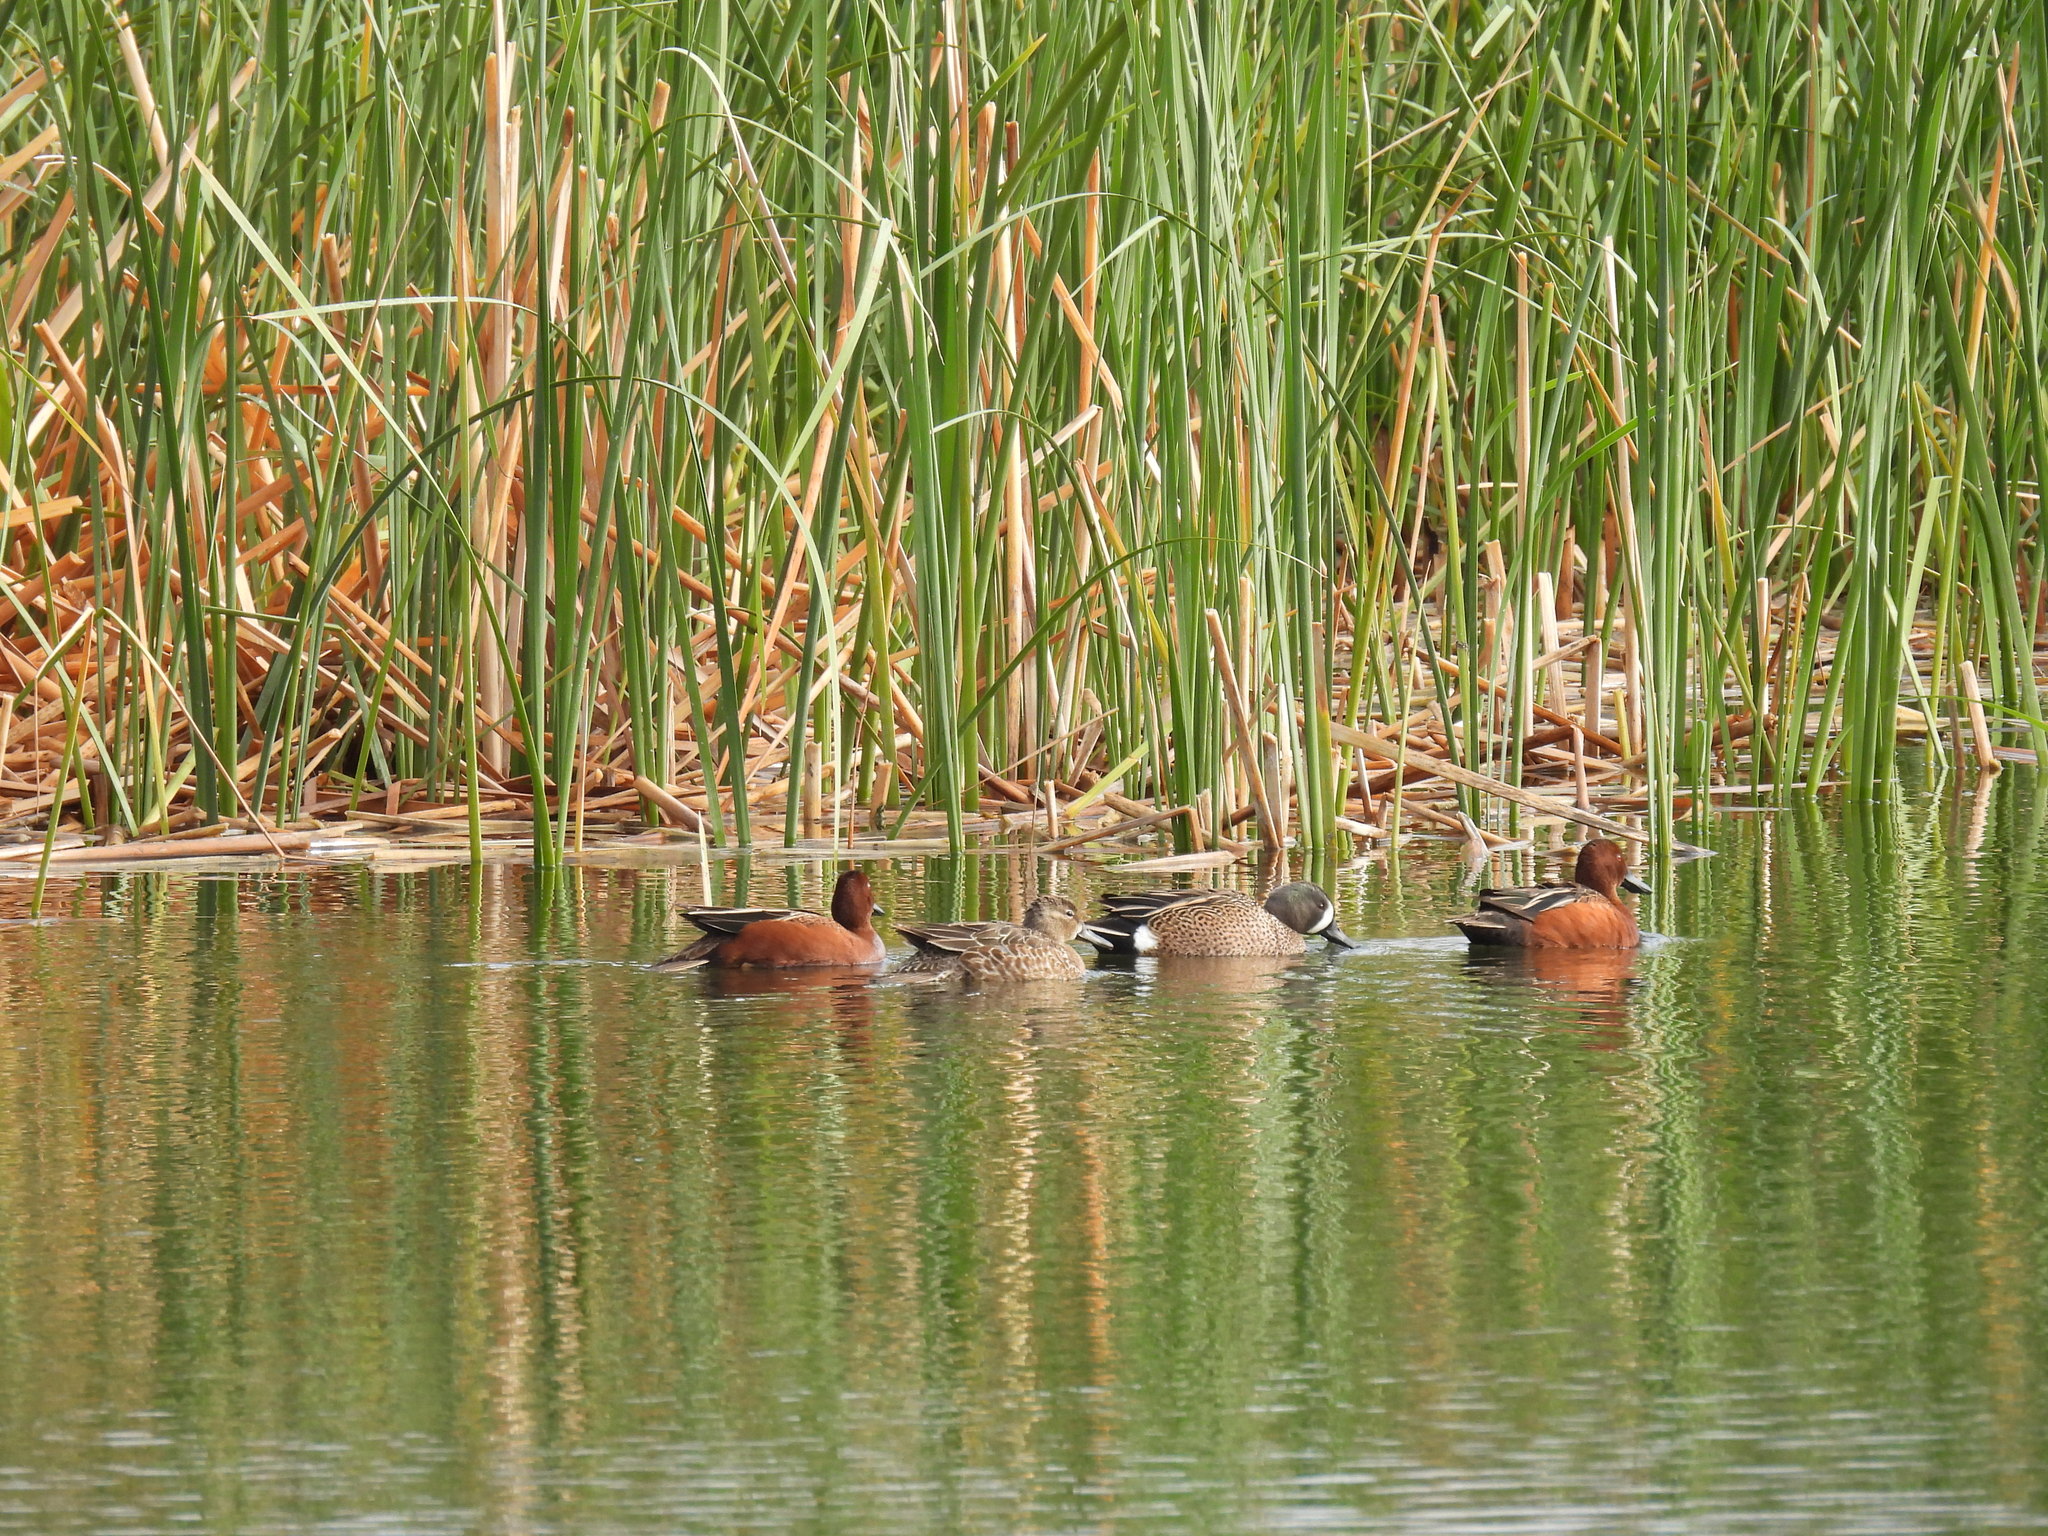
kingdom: Animalia
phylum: Chordata
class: Aves
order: Anseriformes
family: Anatidae
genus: Spatula
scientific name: Spatula discors
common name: Blue-winged teal
